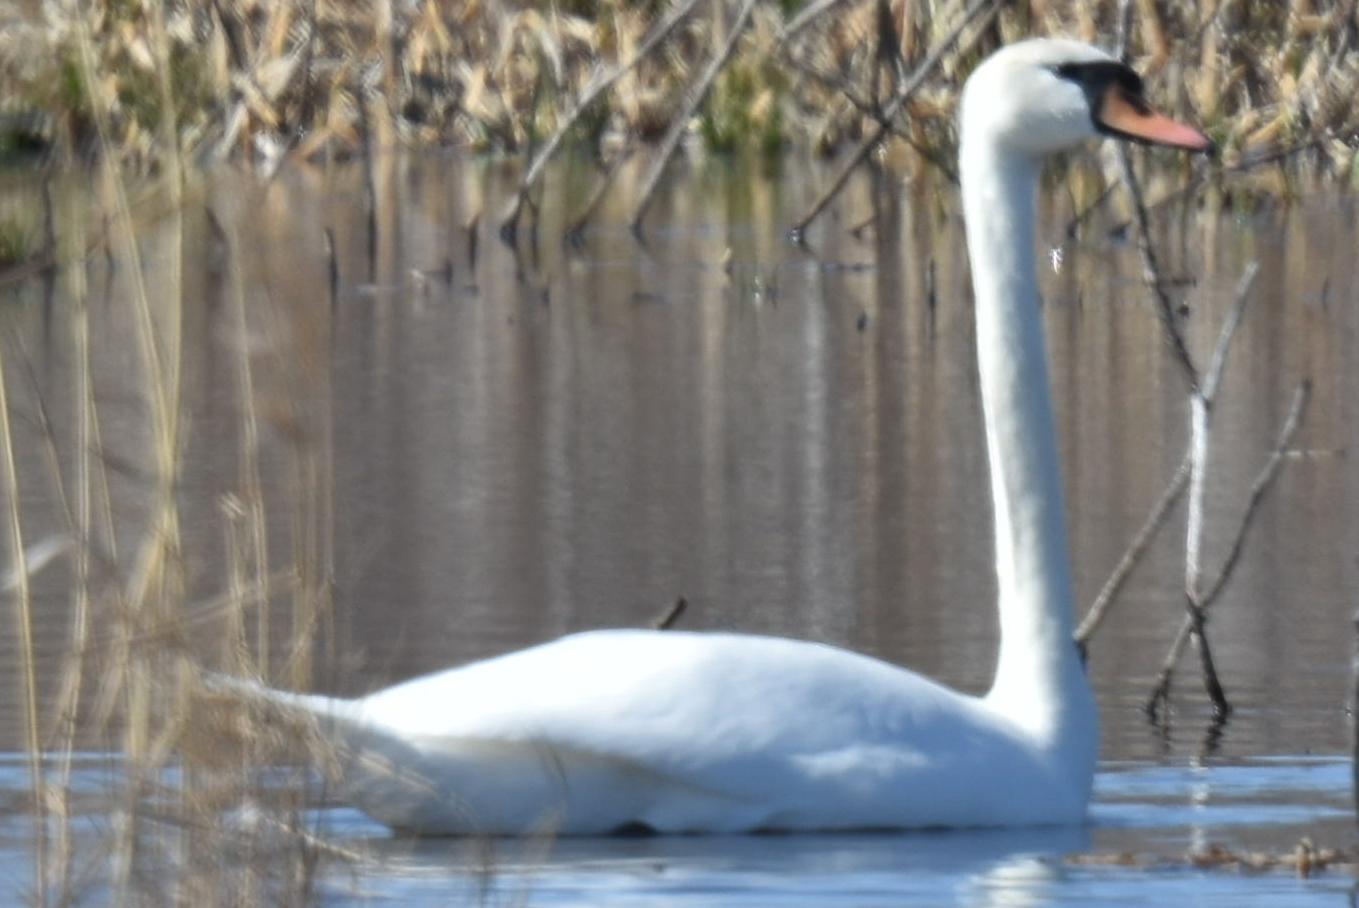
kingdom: Animalia
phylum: Chordata
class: Aves
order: Anseriformes
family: Anatidae
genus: Cygnus
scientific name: Cygnus olor
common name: Mute swan
